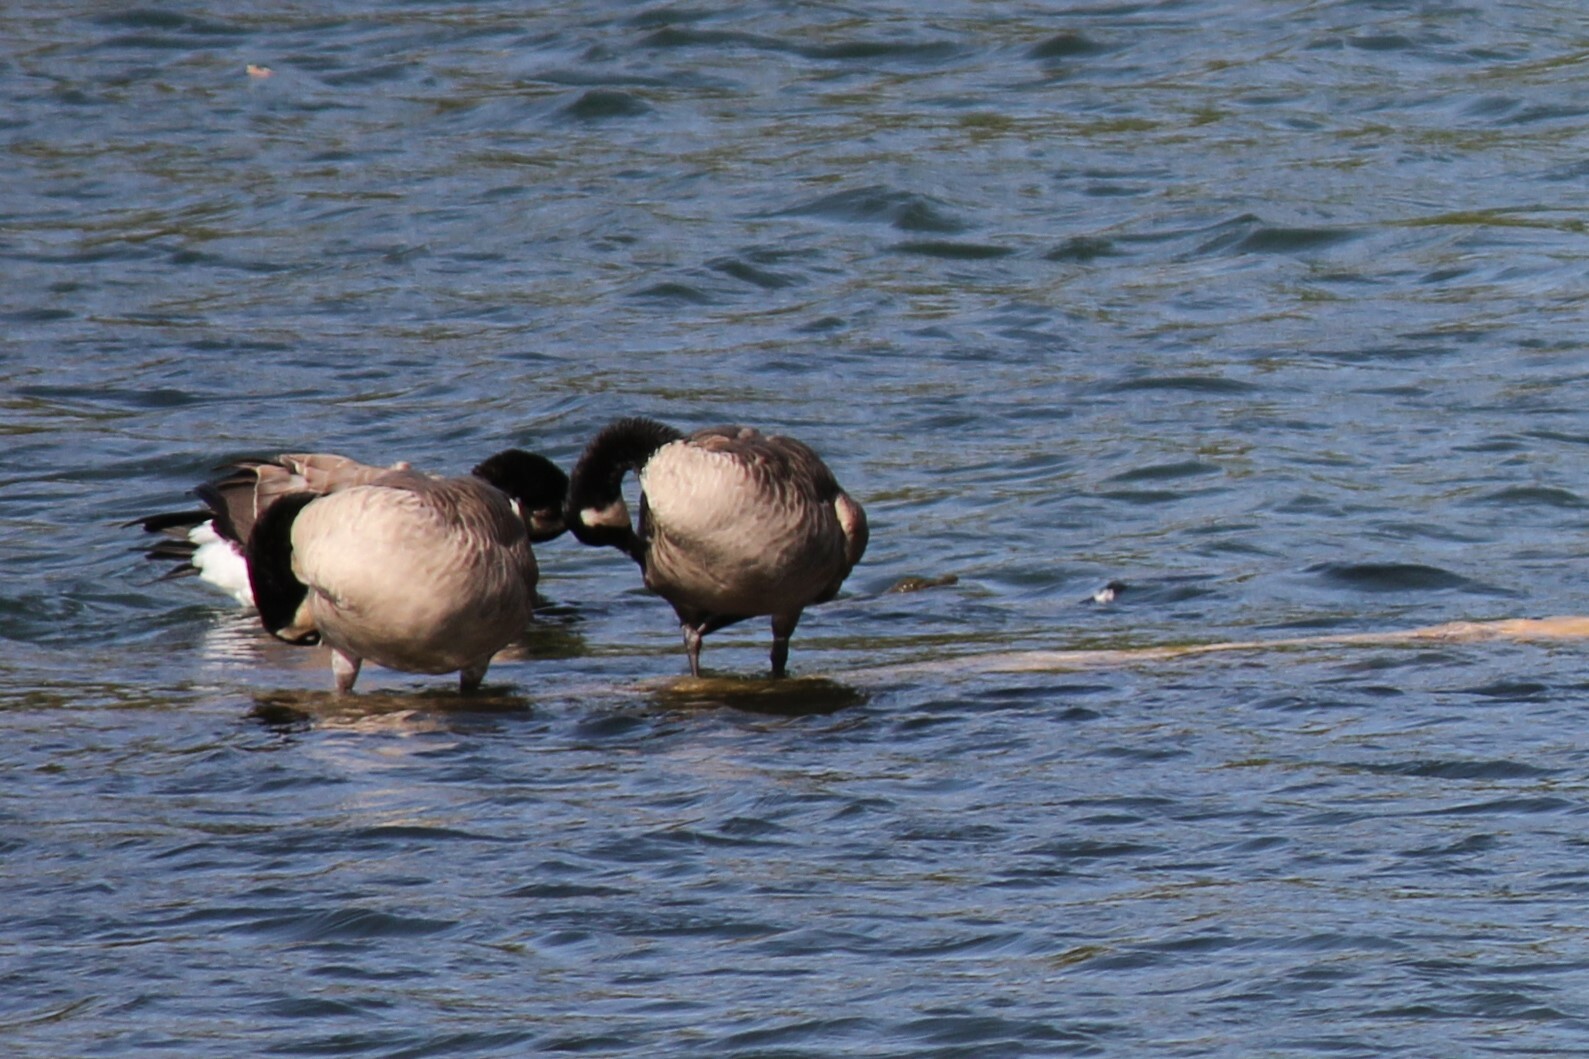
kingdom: Animalia
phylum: Chordata
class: Aves
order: Anseriformes
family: Anatidae
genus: Branta
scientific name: Branta canadensis
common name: Canada goose
